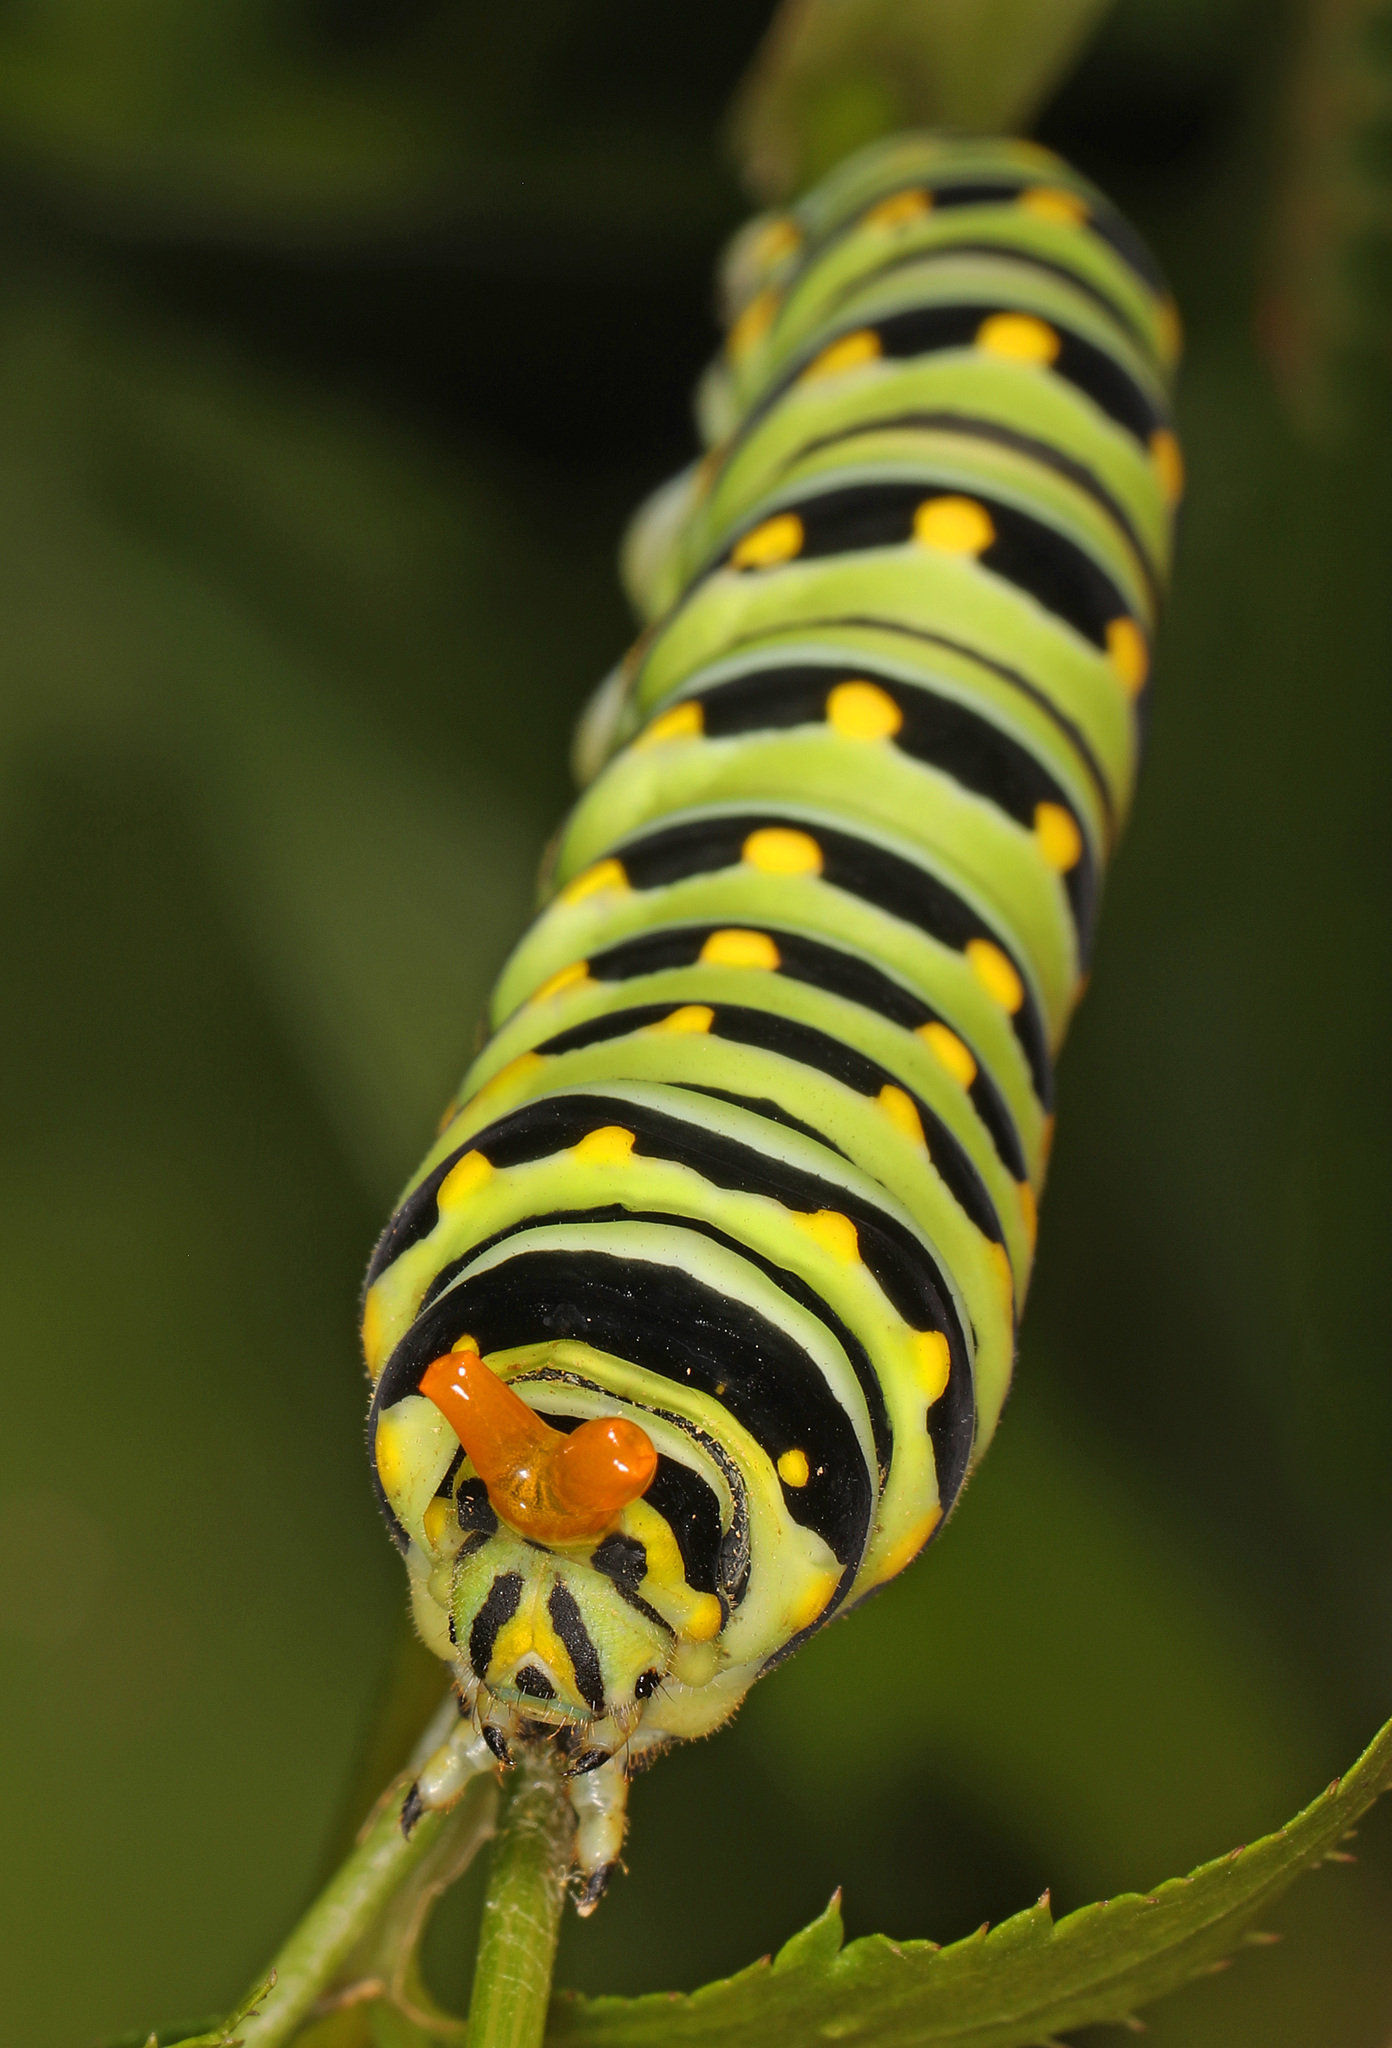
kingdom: Animalia
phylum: Arthropoda
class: Insecta
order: Lepidoptera
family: Papilionidae
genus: Papilio
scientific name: Papilio polyxenes
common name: Black swallowtail
